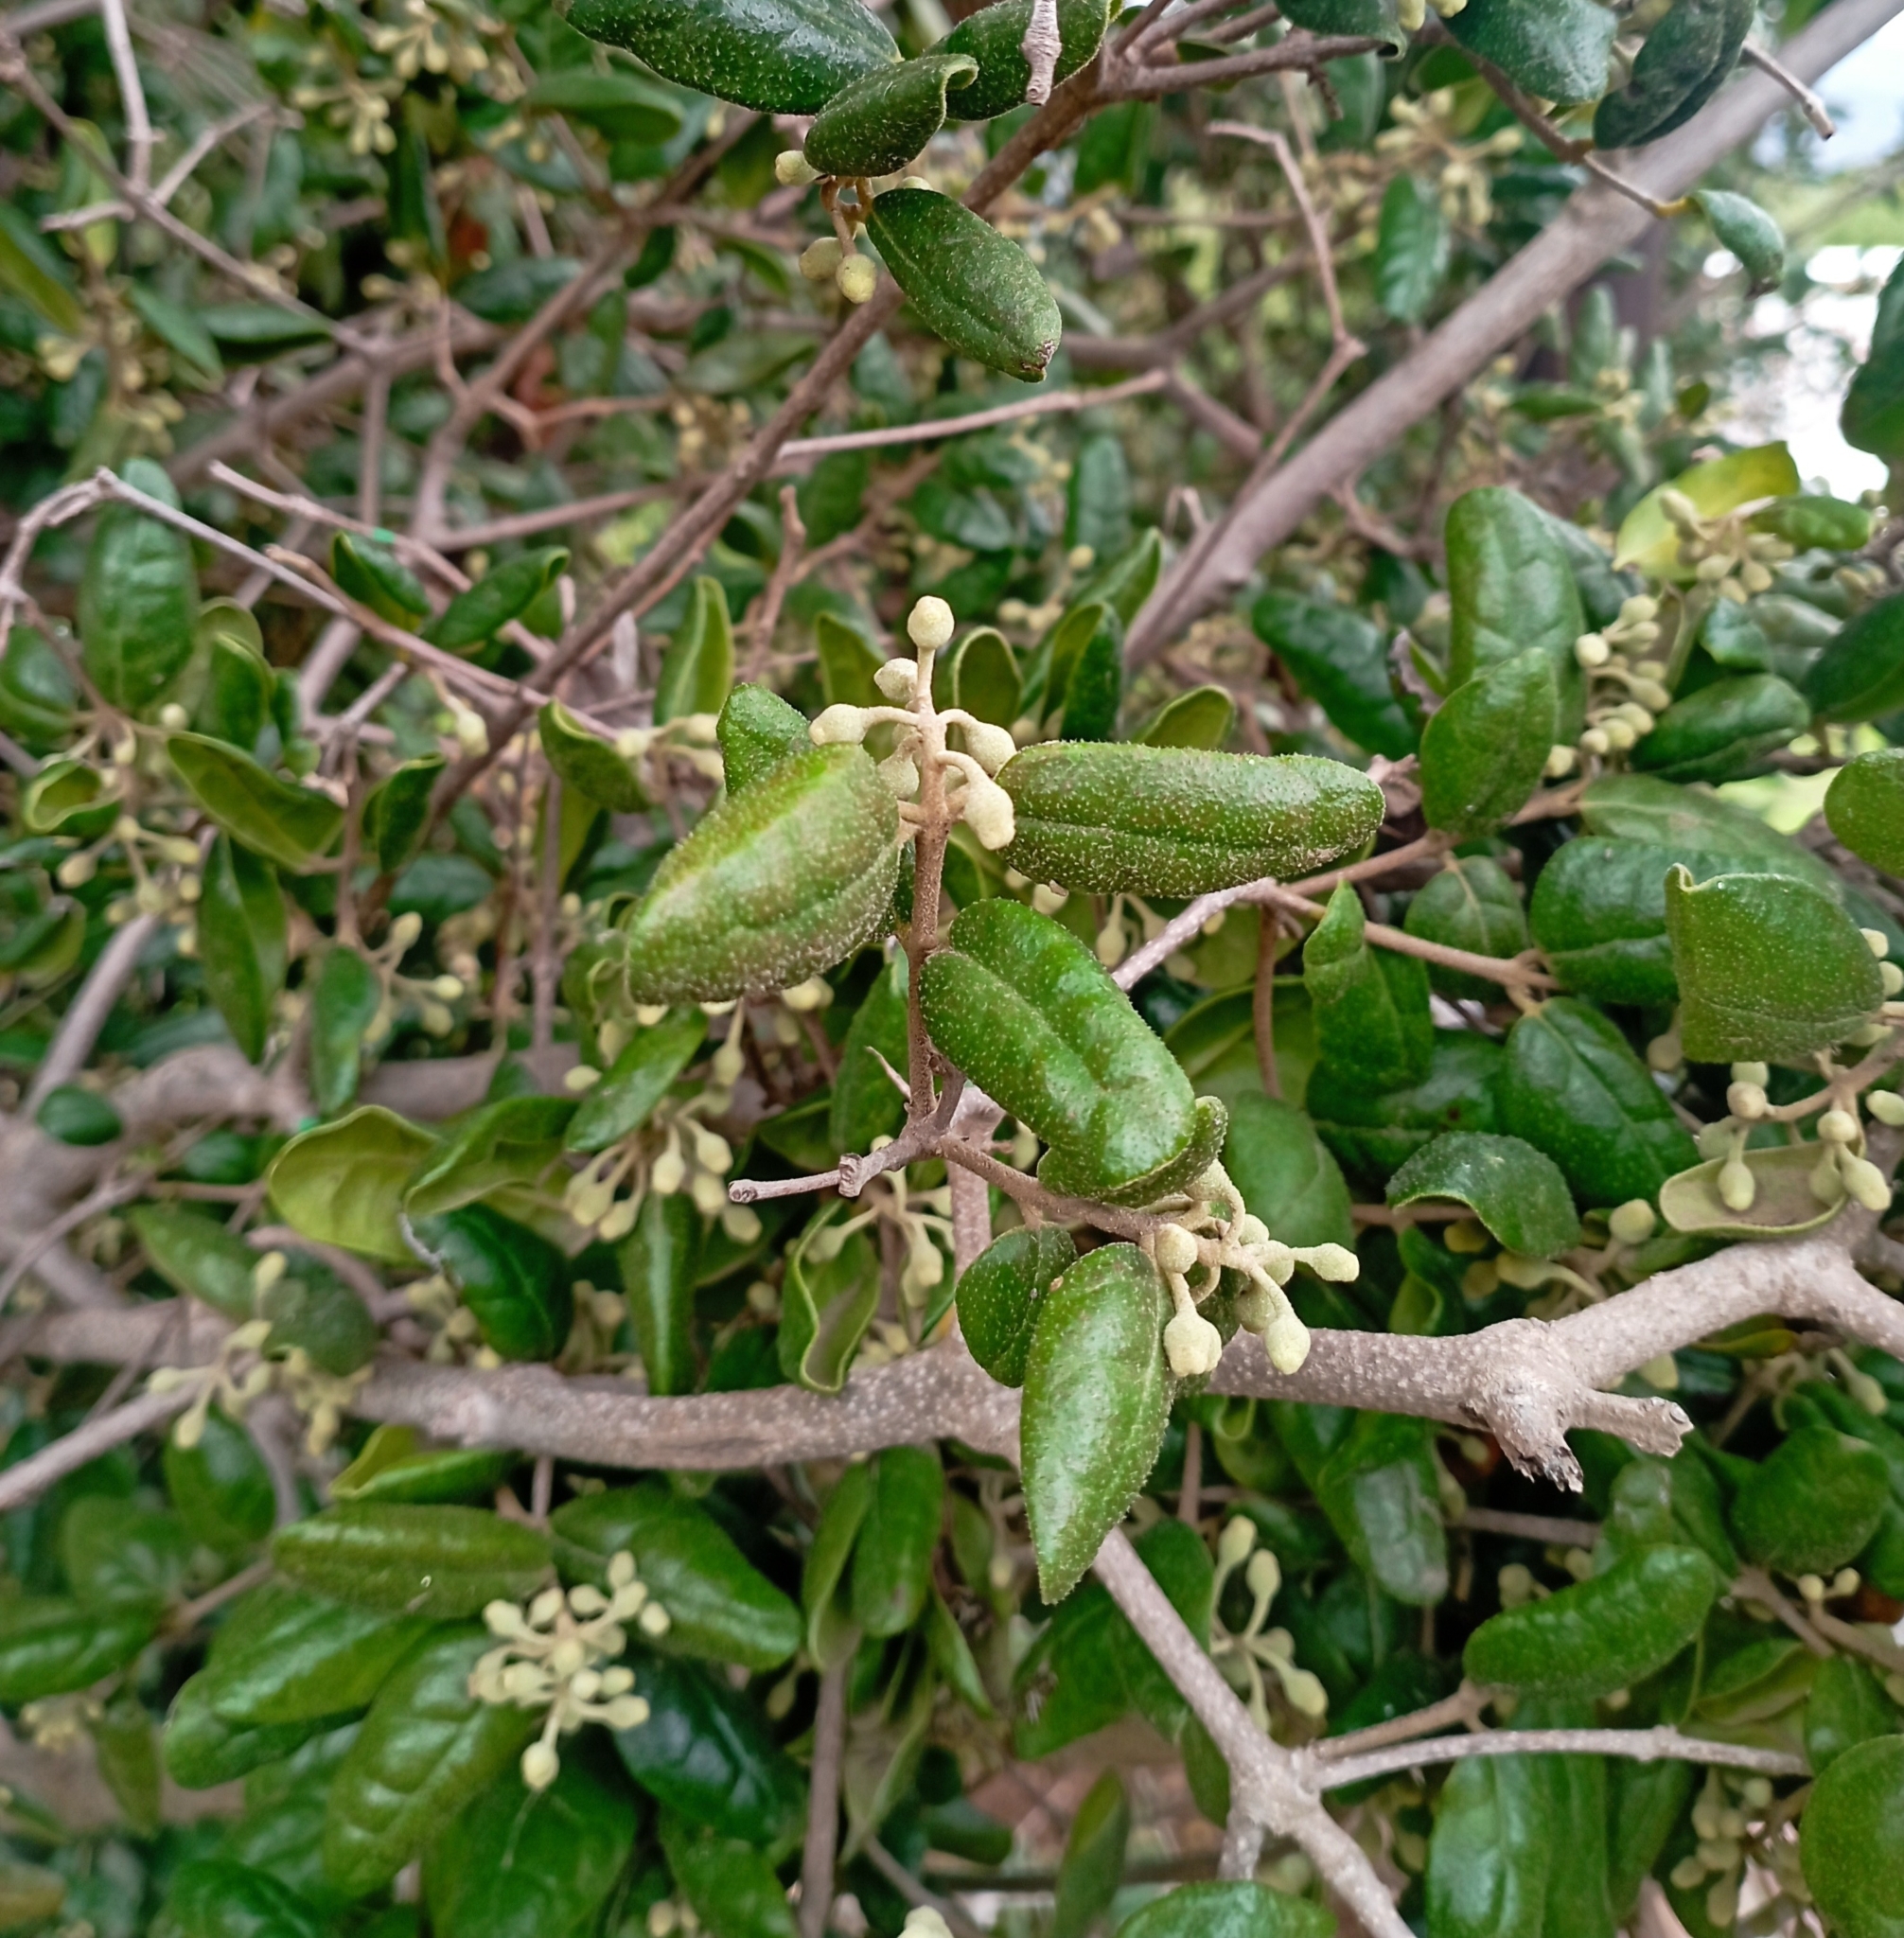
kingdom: Plantae
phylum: Tracheophyta
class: Magnoliopsida
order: Laurales
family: Monimiaceae
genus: Peumus
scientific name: Peumus boldus
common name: Boldo
